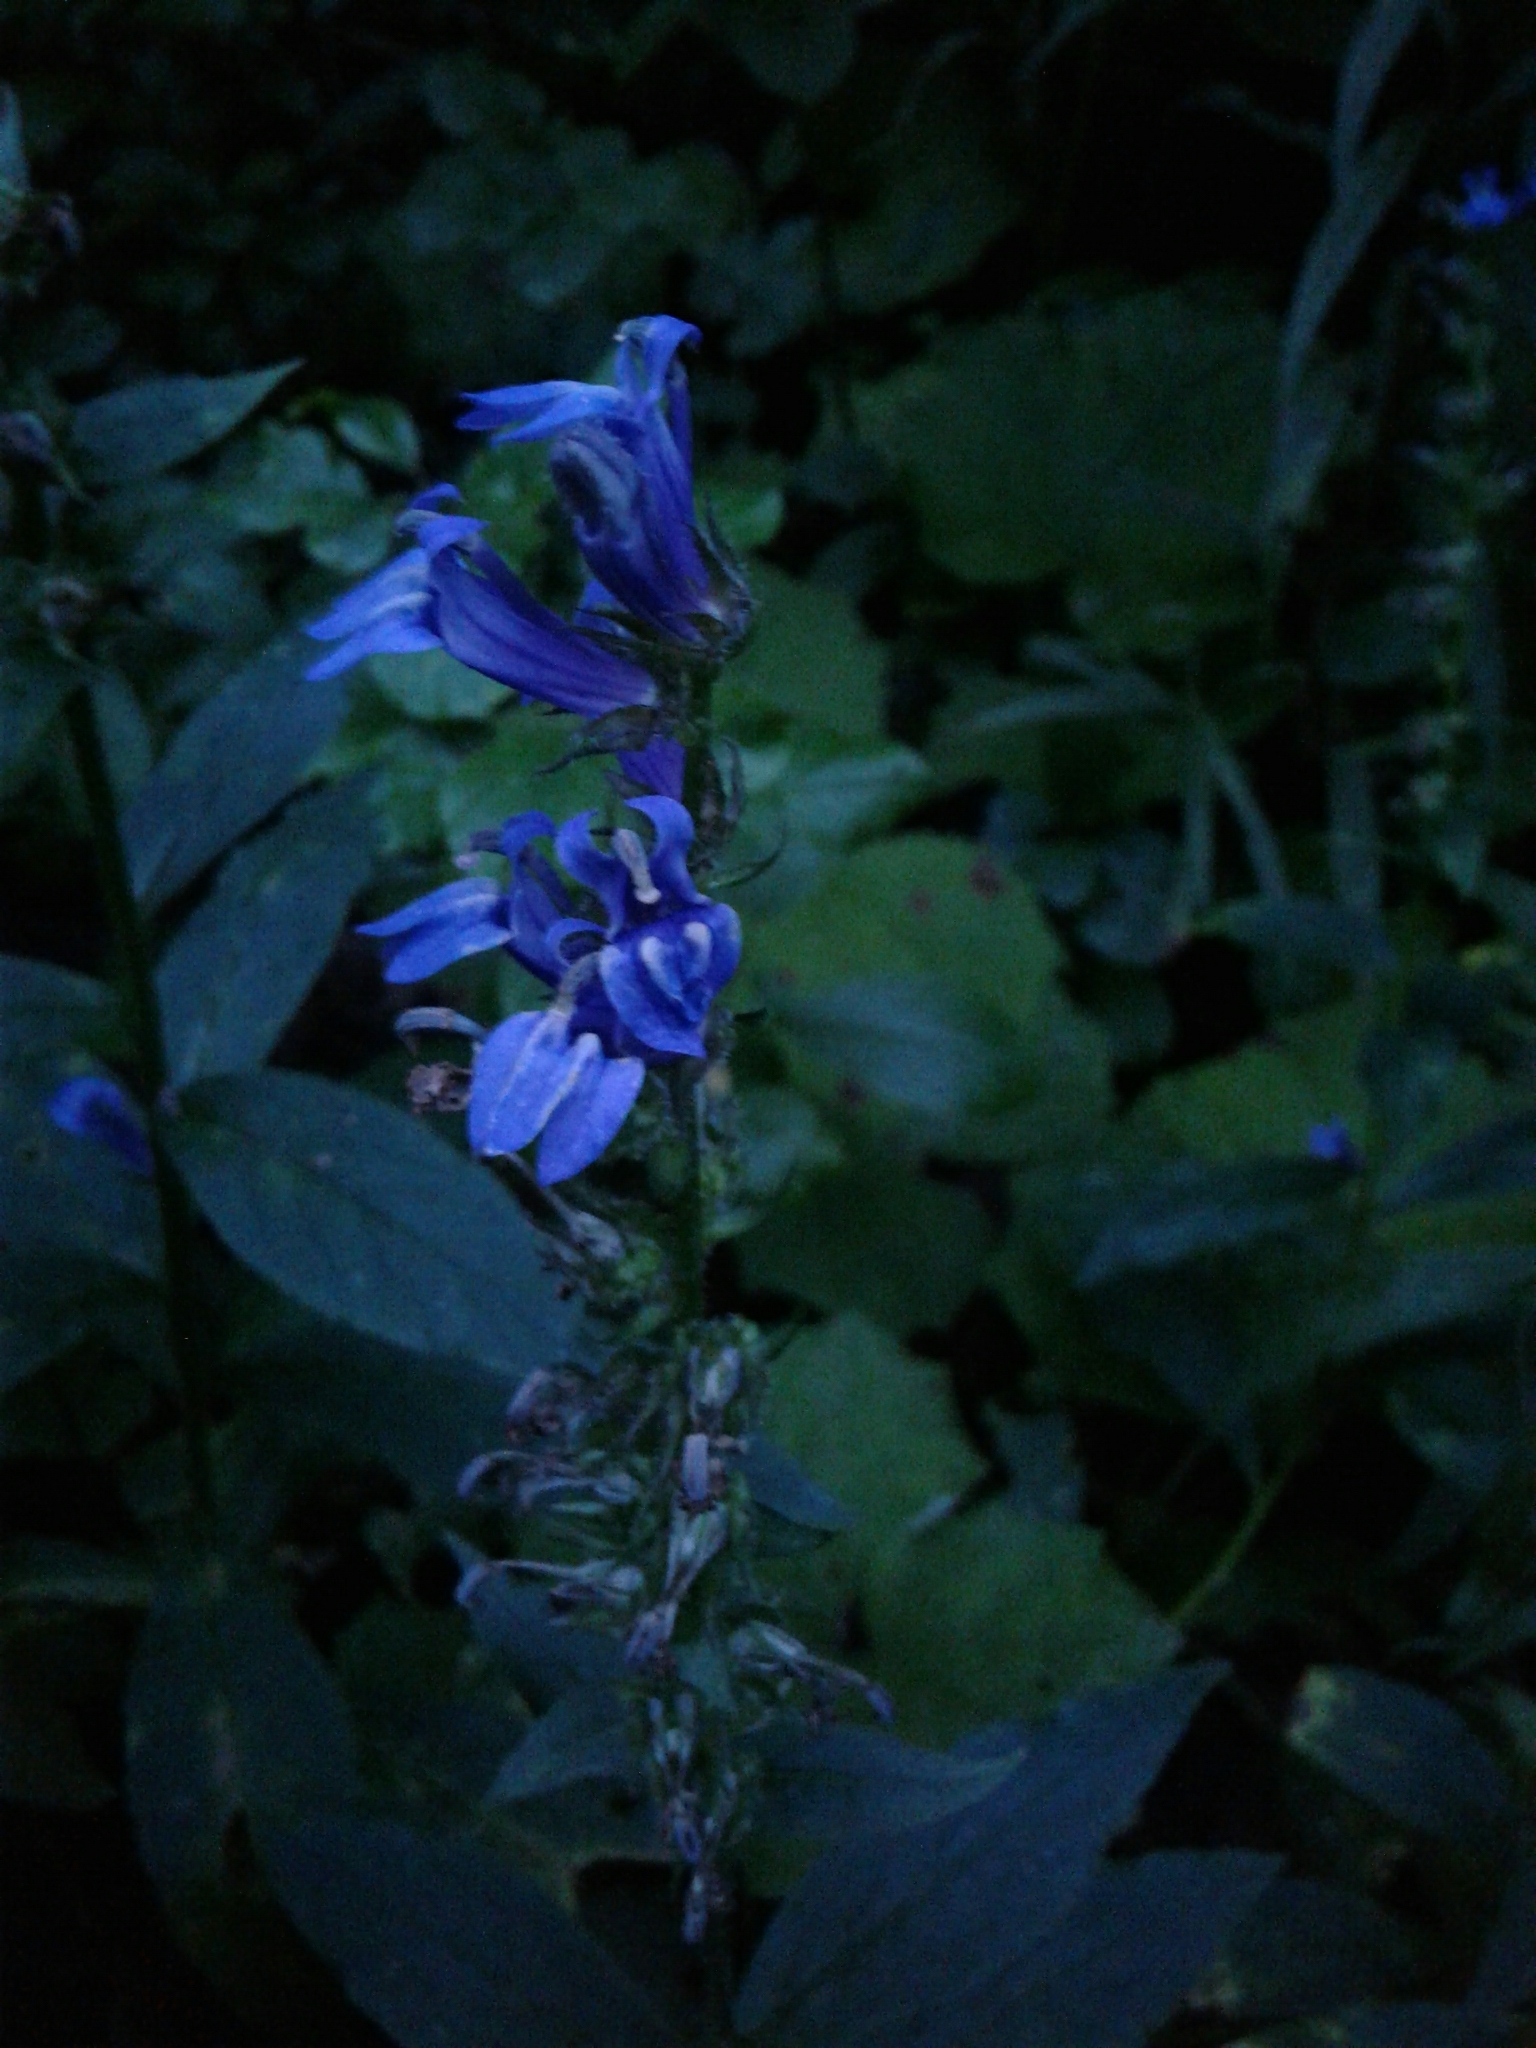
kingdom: Plantae
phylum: Tracheophyta
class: Magnoliopsida
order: Asterales
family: Campanulaceae
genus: Lobelia
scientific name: Lobelia siphilitica
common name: Great lobelia
